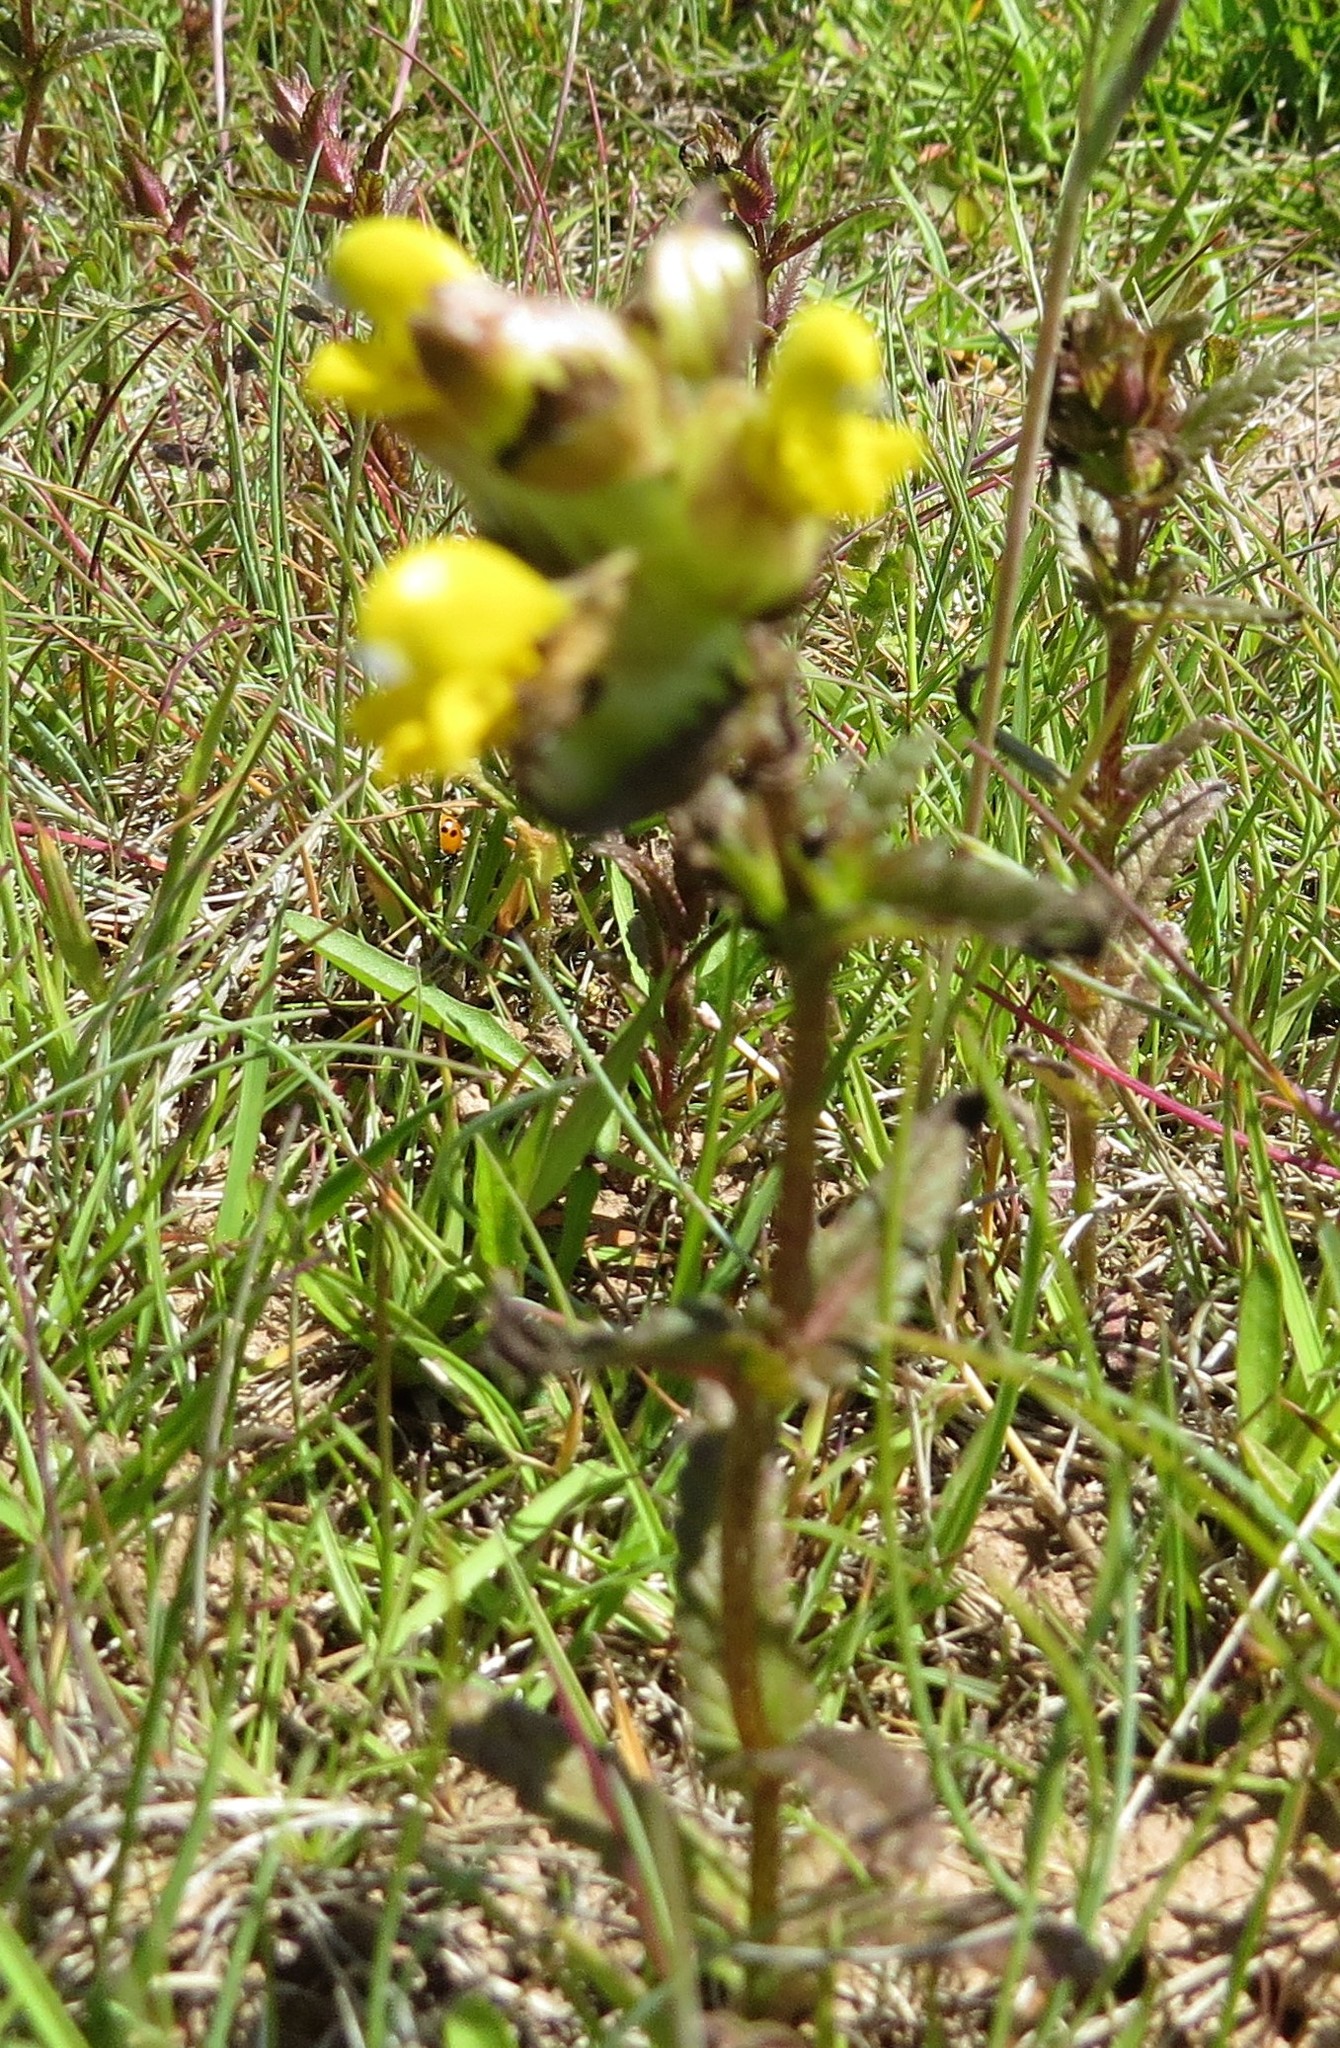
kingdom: Plantae
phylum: Tracheophyta
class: Magnoliopsida
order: Lamiales
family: Orobanchaceae
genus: Rhinanthus
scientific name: Rhinanthus minor
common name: Yellow-rattle
